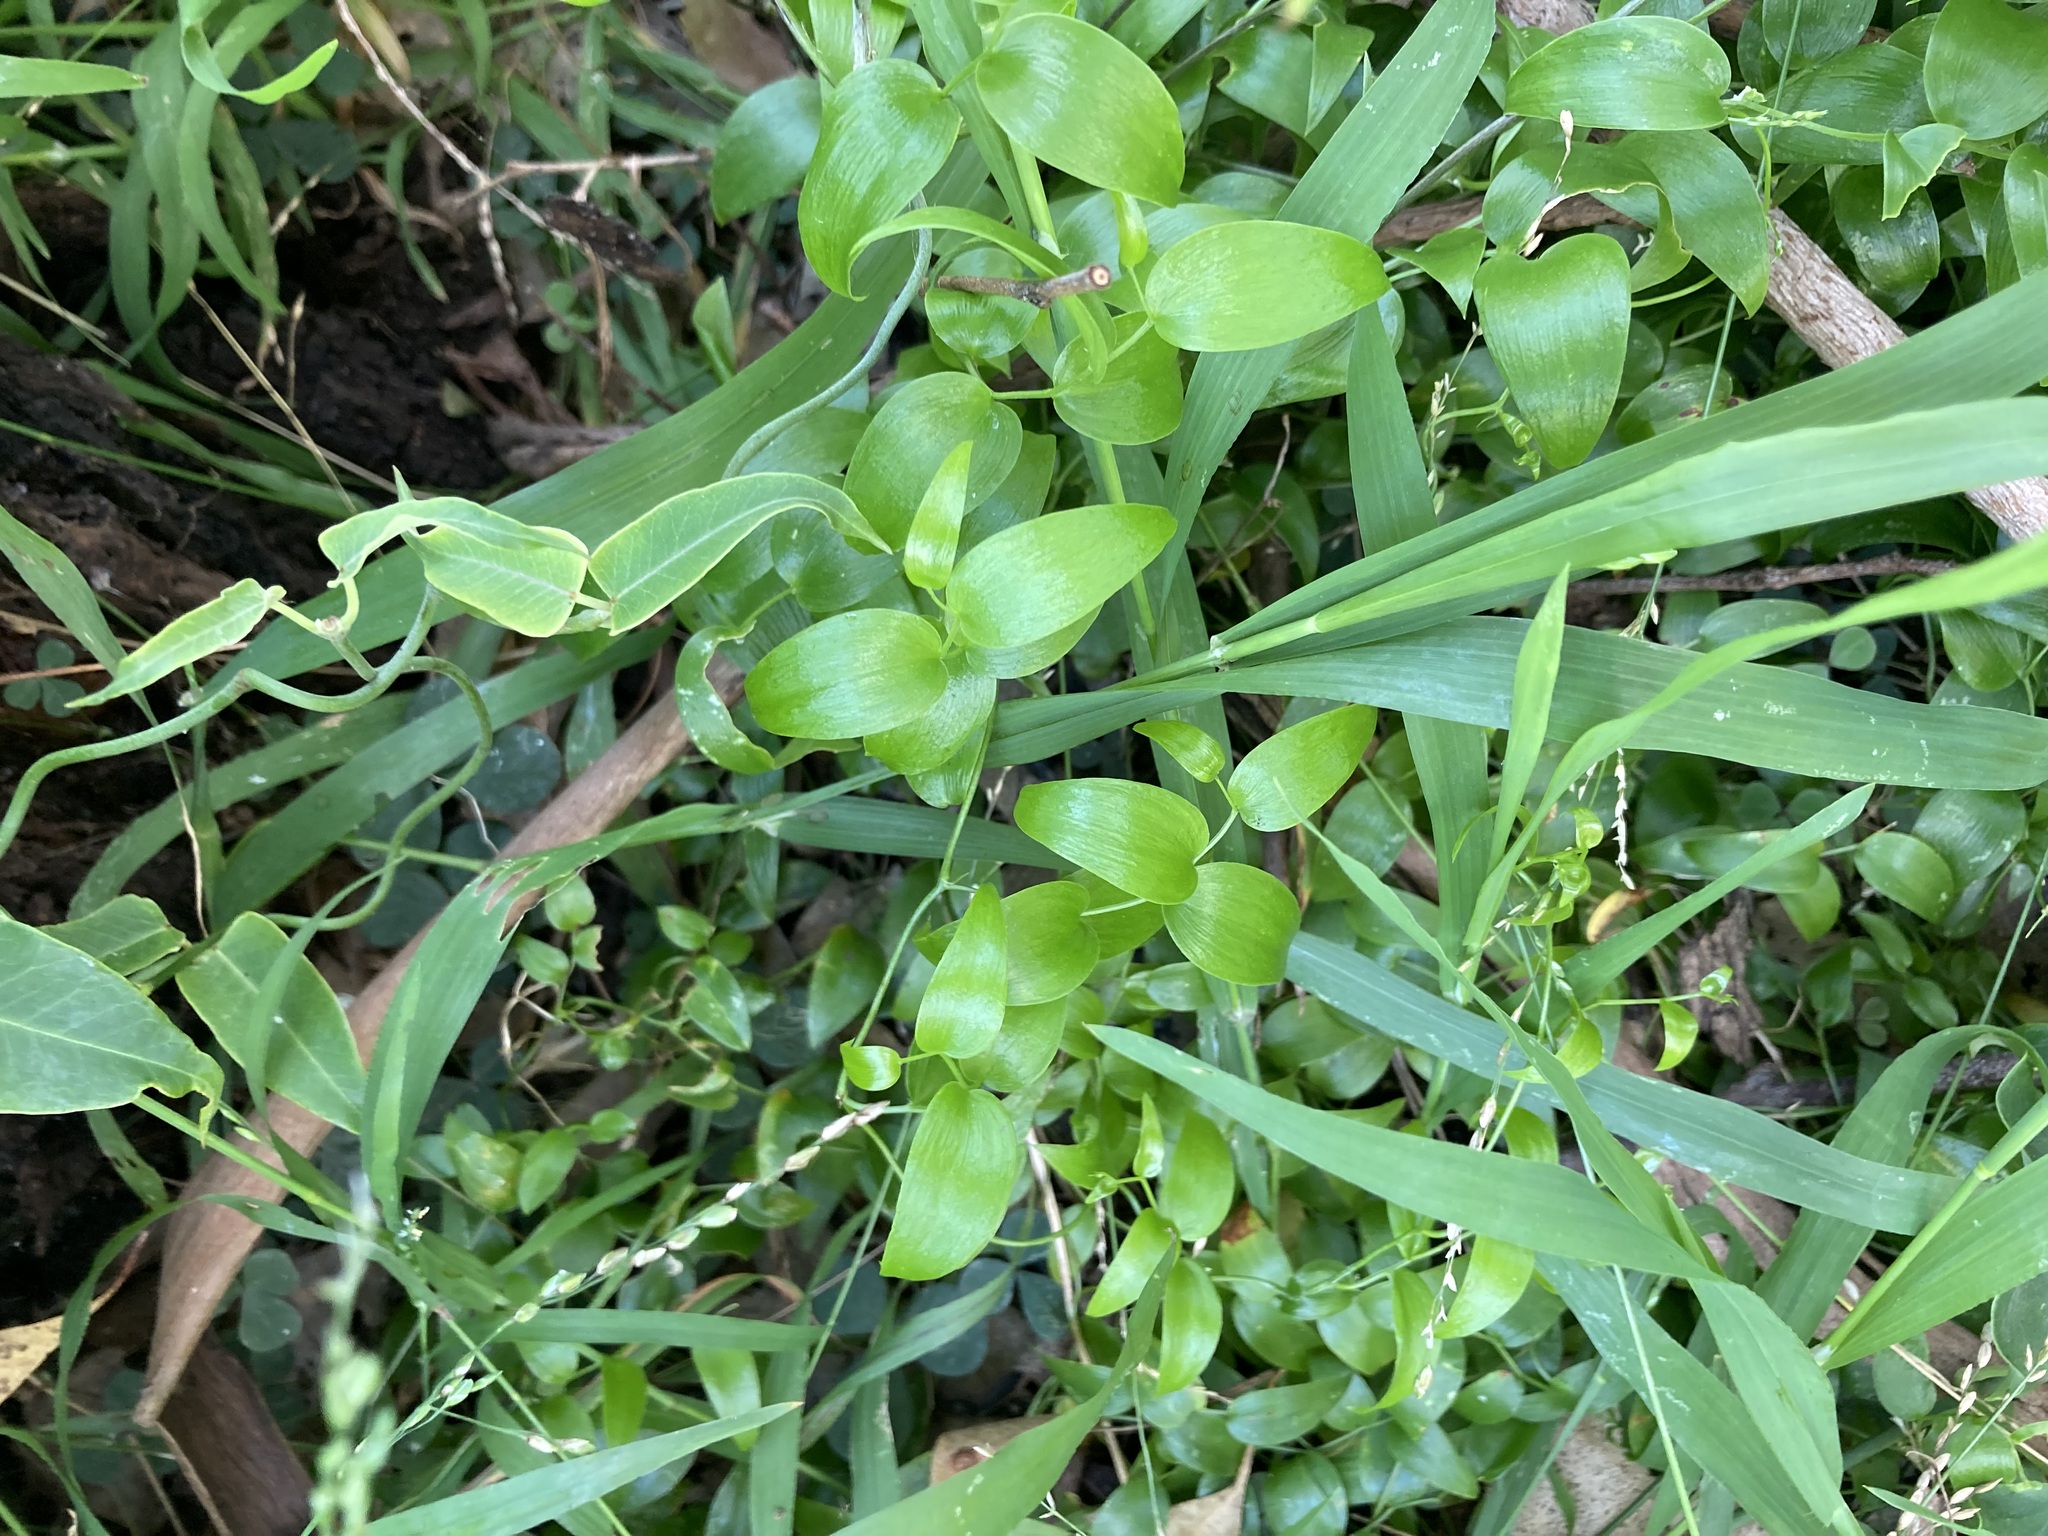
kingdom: Plantae
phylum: Tracheophyta
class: Liliopsida
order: Asparagales
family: Asparagaceae
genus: Asparagus
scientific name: Asparagus asparagoides
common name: African asparagus fern
